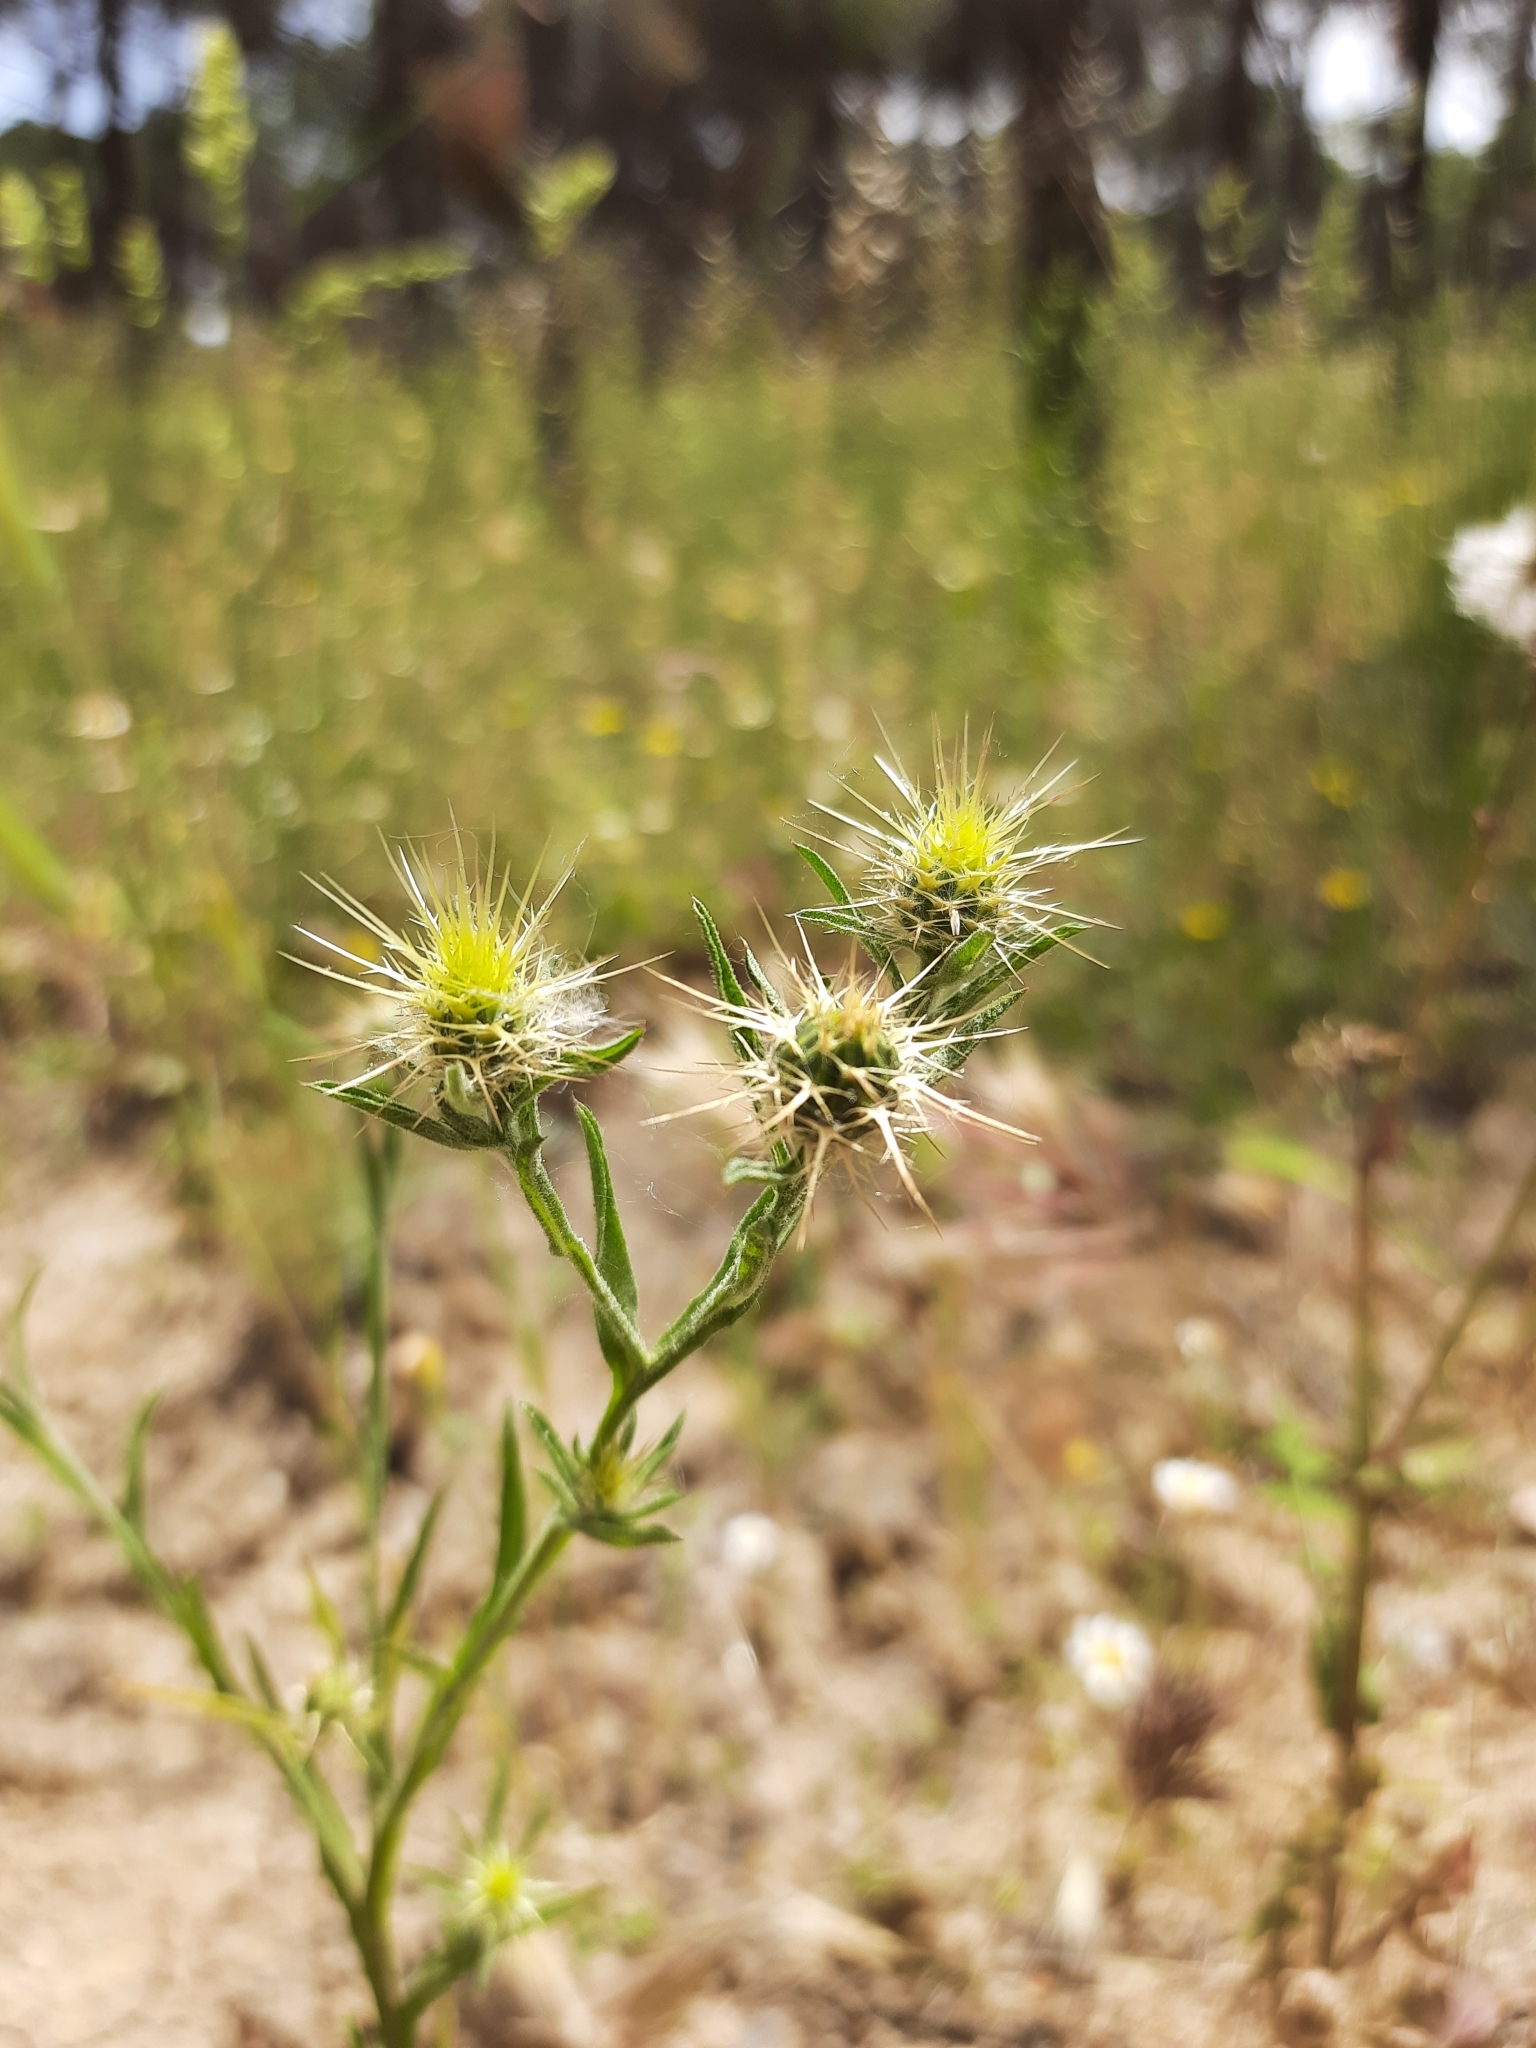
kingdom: Plantae
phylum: Tracheophyta
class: Magnoliopsida
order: Asterales
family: Asteraceae
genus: Centaurea
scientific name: Centaurea melitensis
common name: Maltese star-thistle
